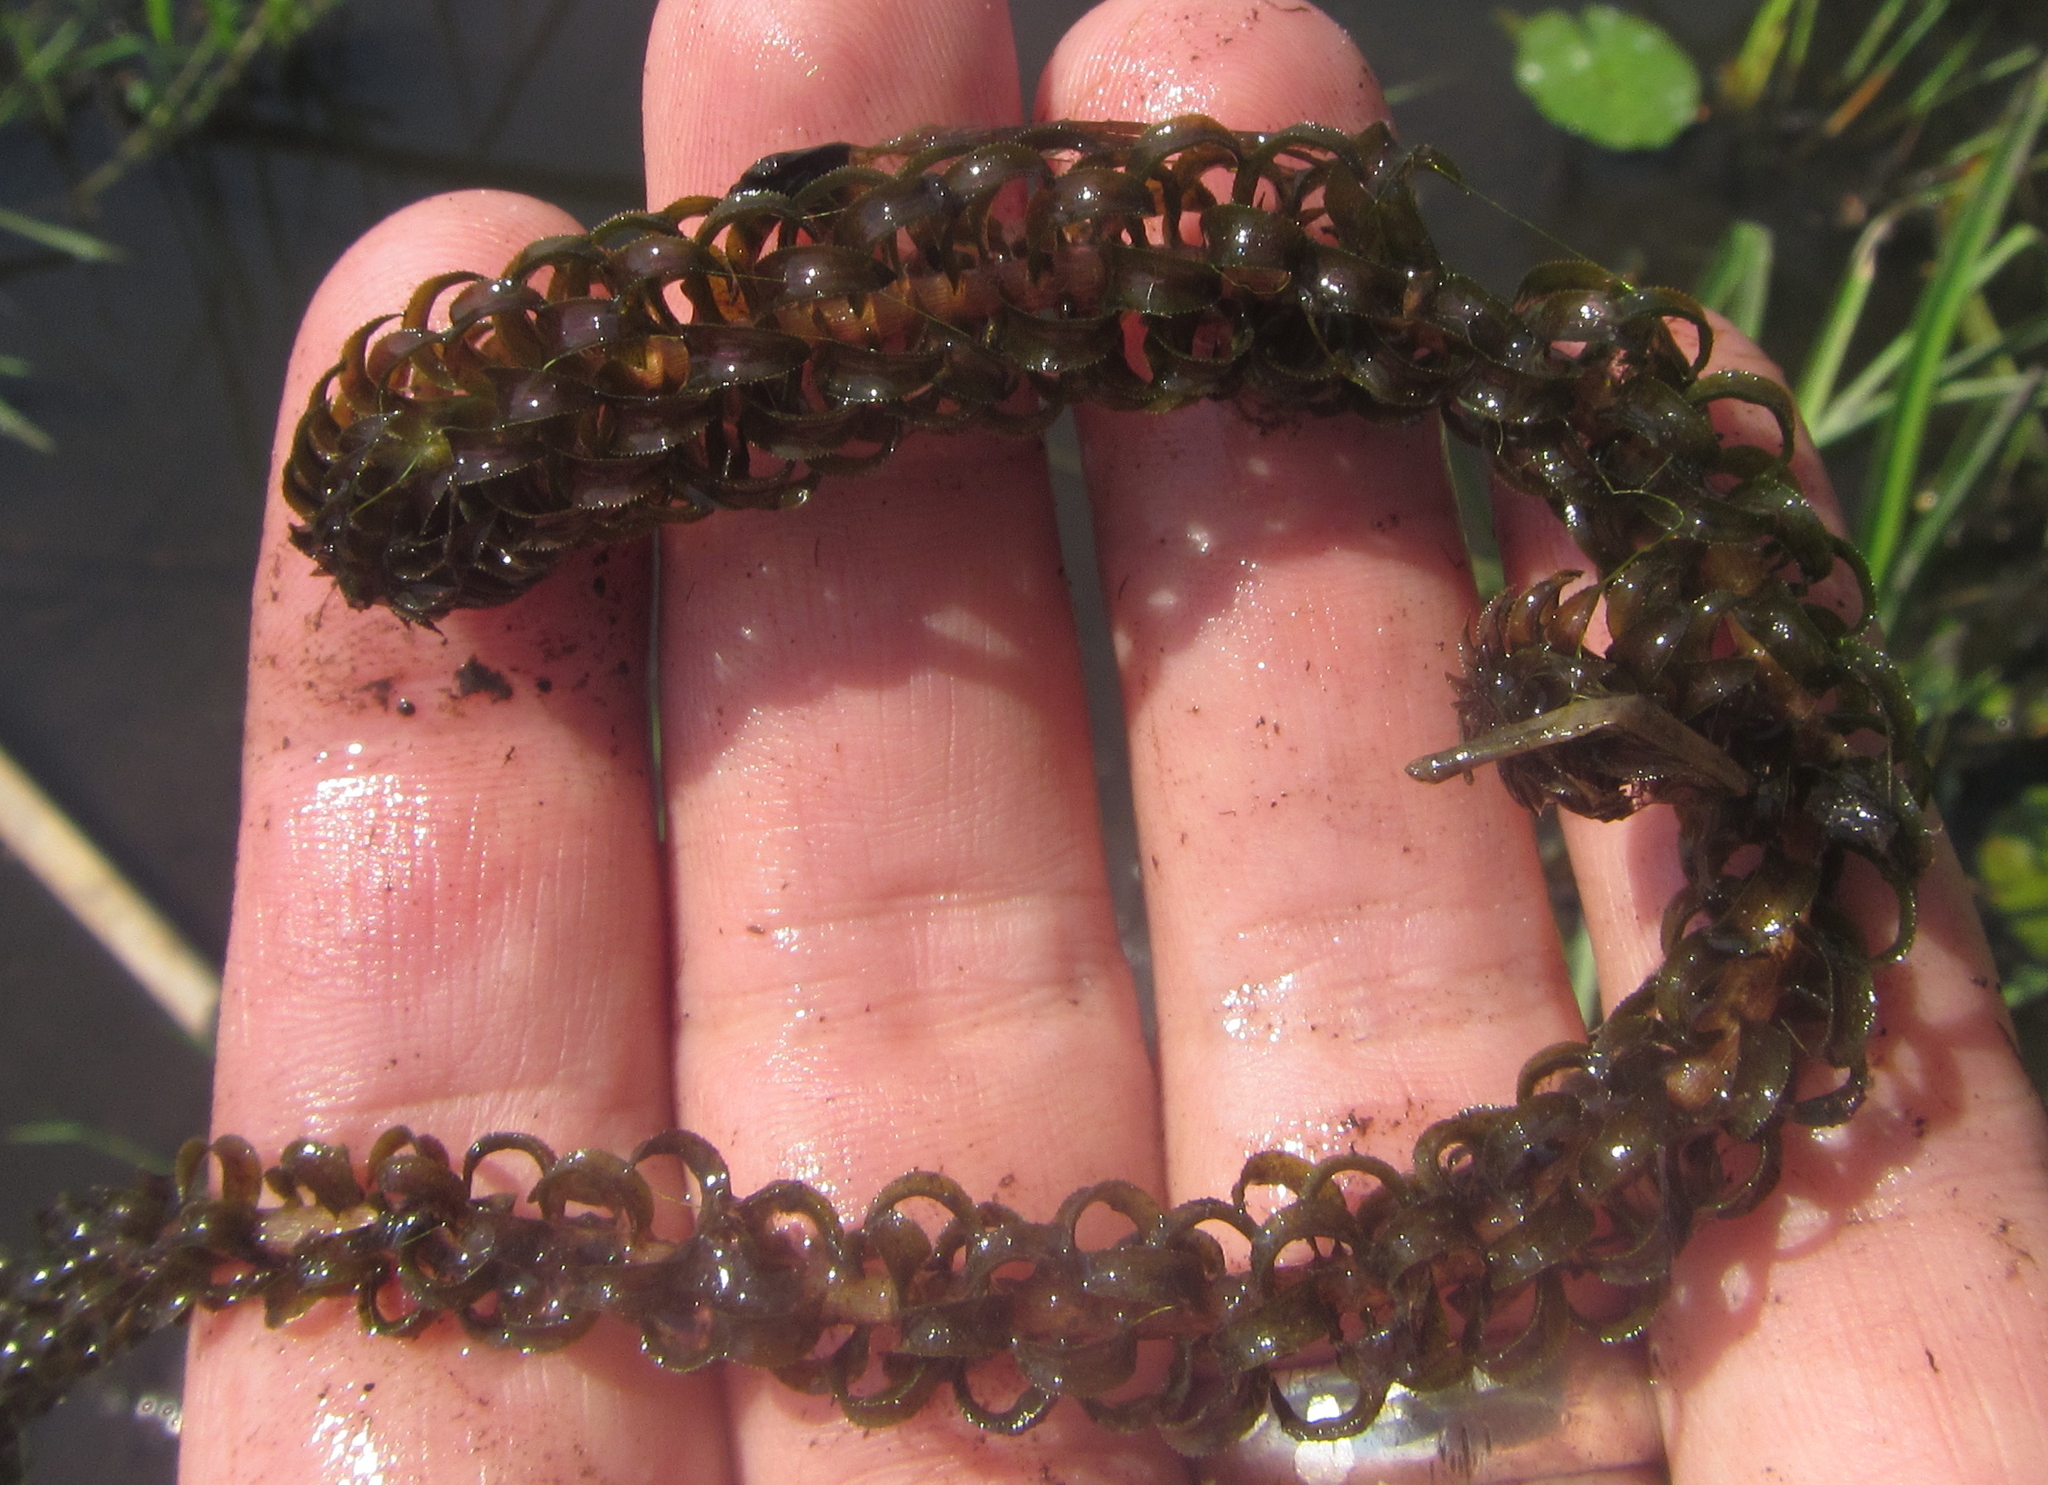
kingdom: Plantae
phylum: Tracheophyta
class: Liliopsida
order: Alismatales
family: Hydrocharitaceae
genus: Lagarosiphon
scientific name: Lagarosiphon ilicifolius
